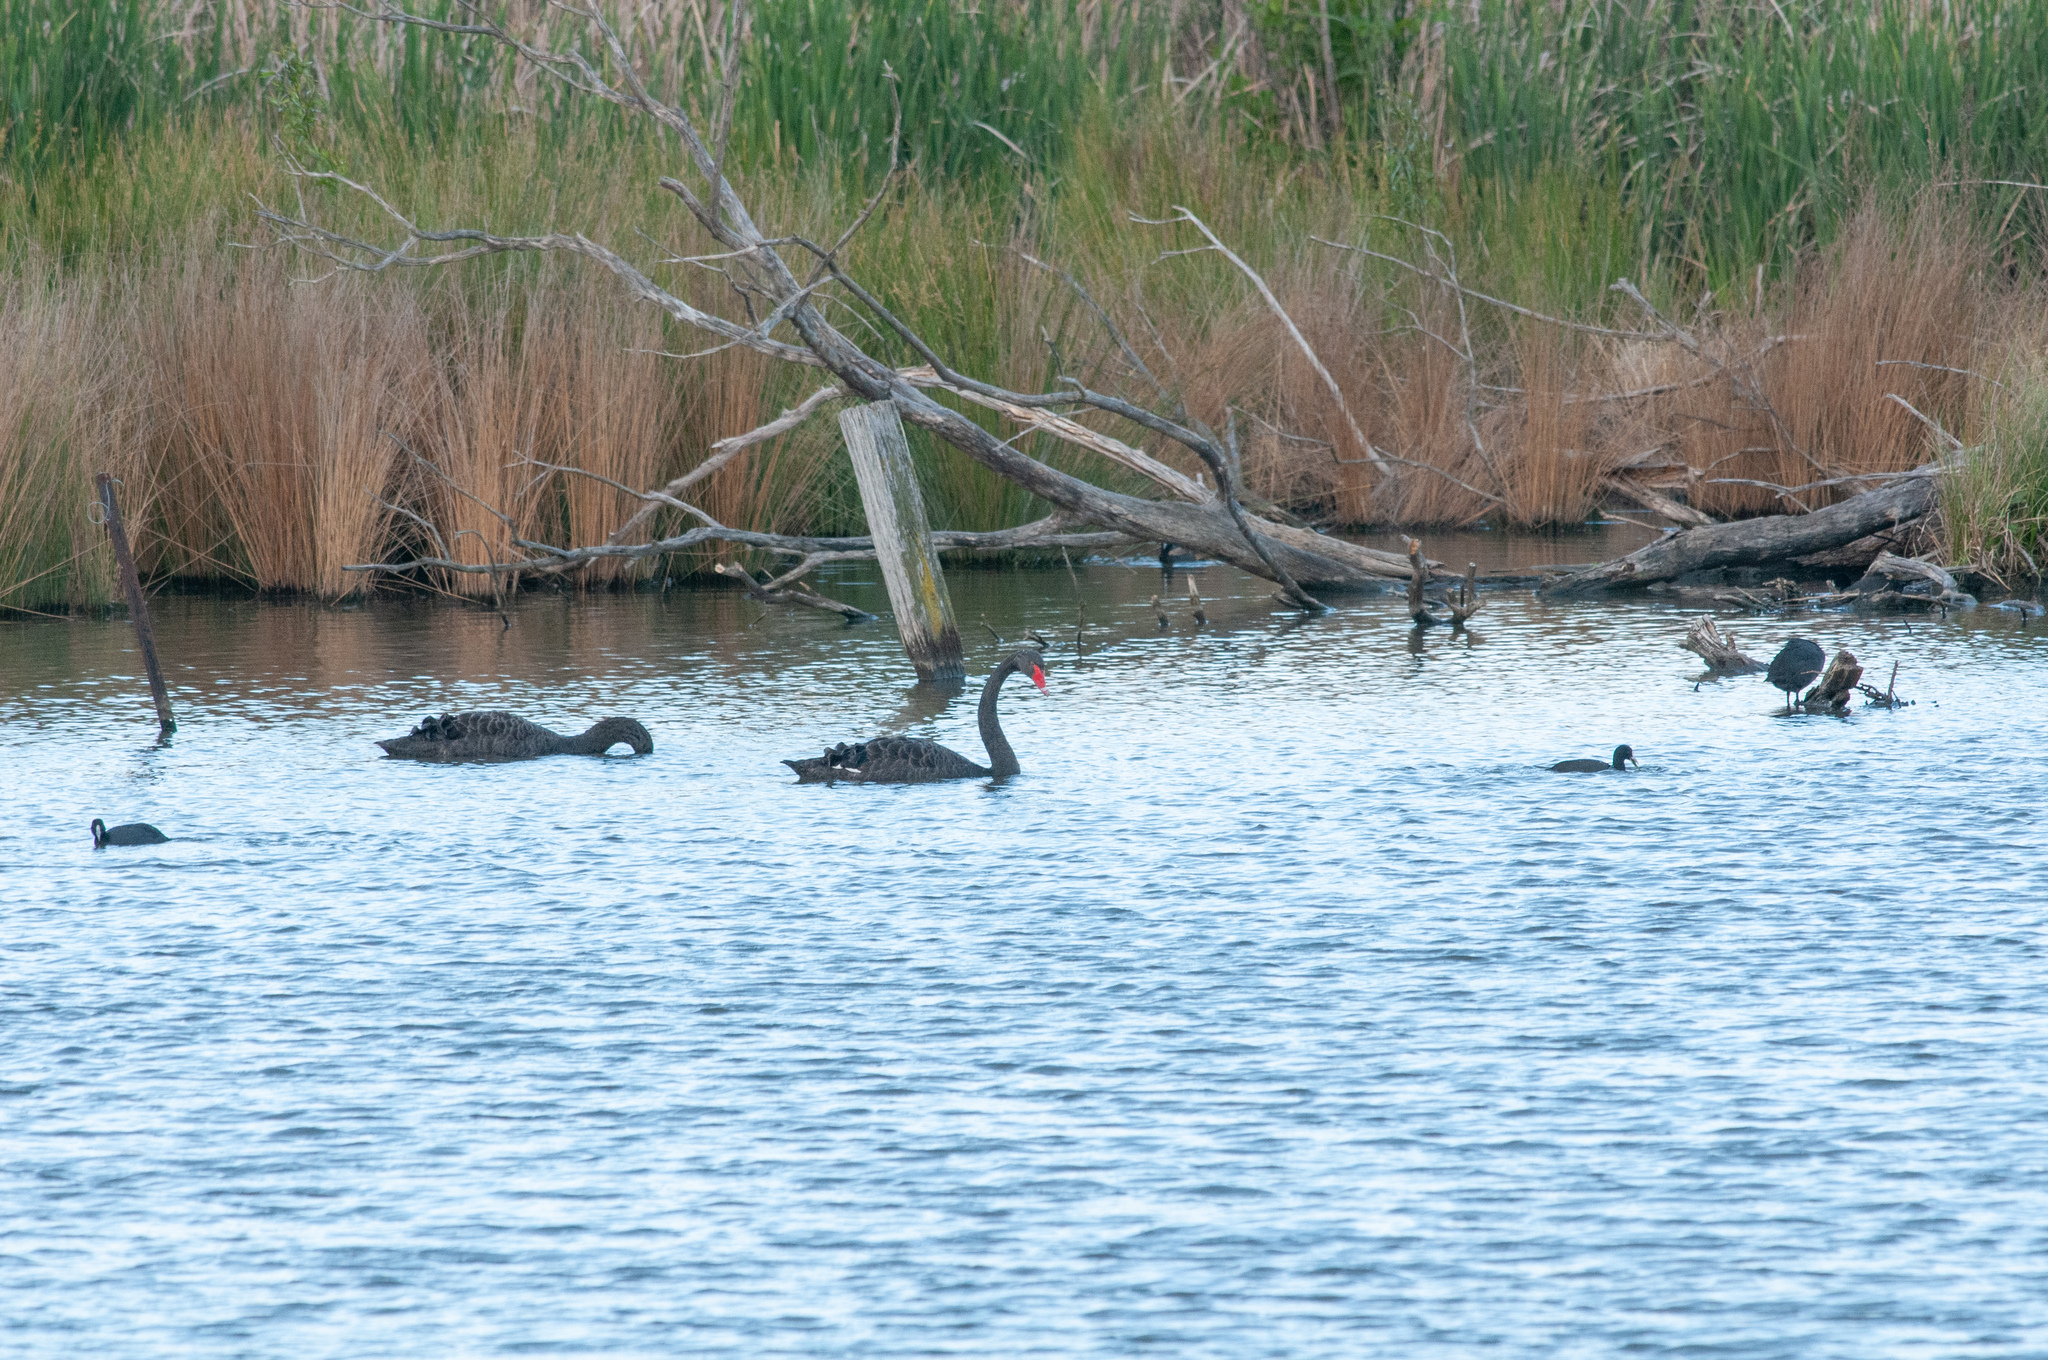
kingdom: Animalia
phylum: Chordata
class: Aves
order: Anseriformes
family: Anatidae
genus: Cygnus
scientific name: Cygnus atratus
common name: Black swan
